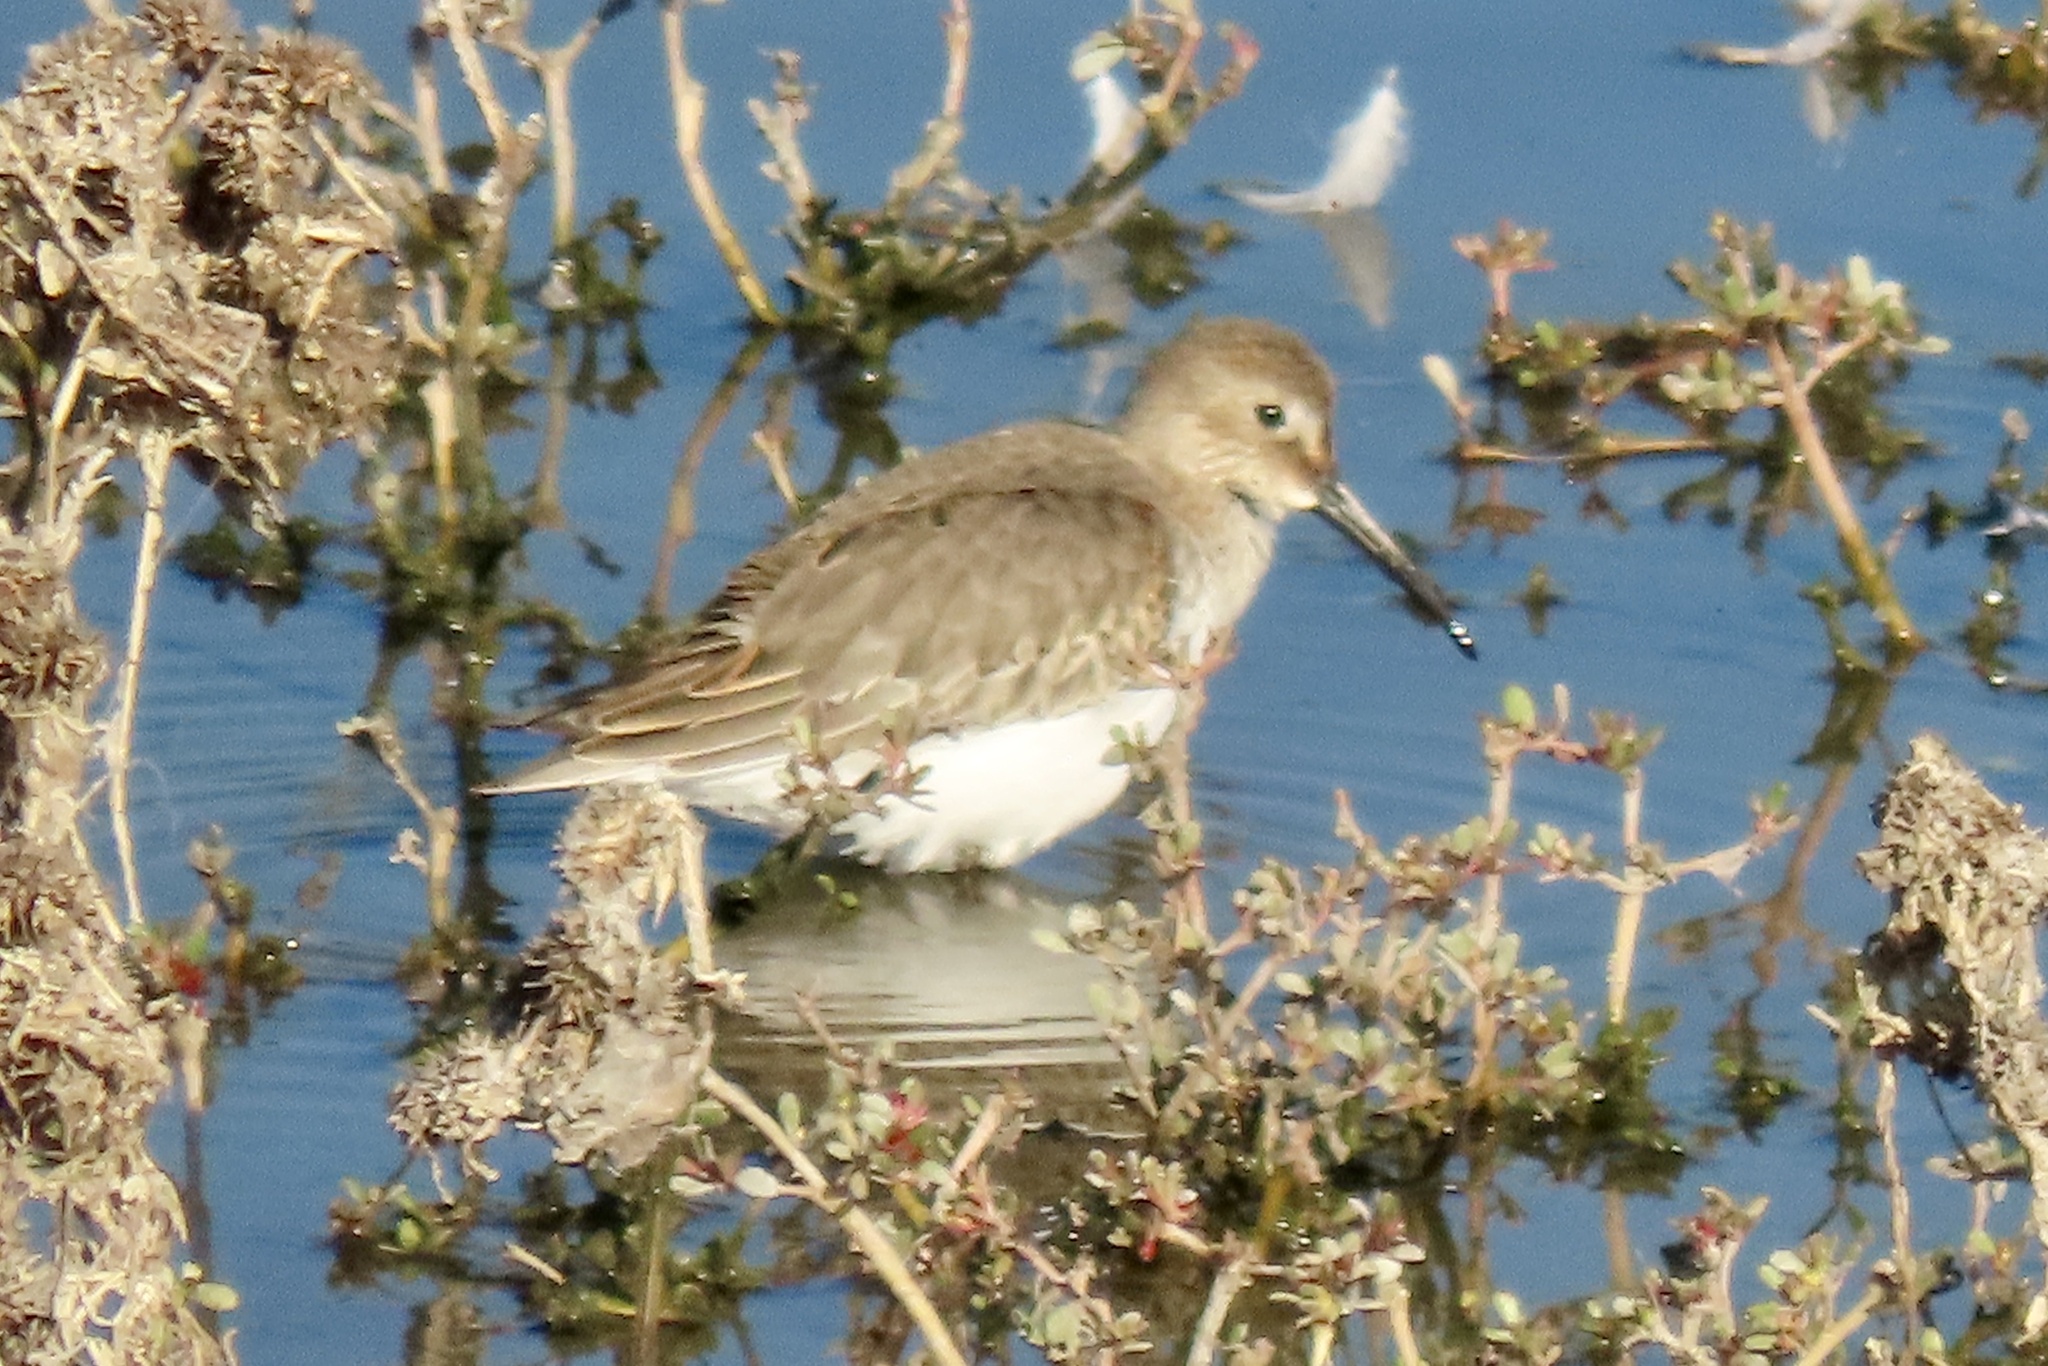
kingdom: Animalia
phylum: Chordata
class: Aves
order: Charadriiformes
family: Scolopacidae
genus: Calidris
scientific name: Calidris alpina
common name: Dunlin
